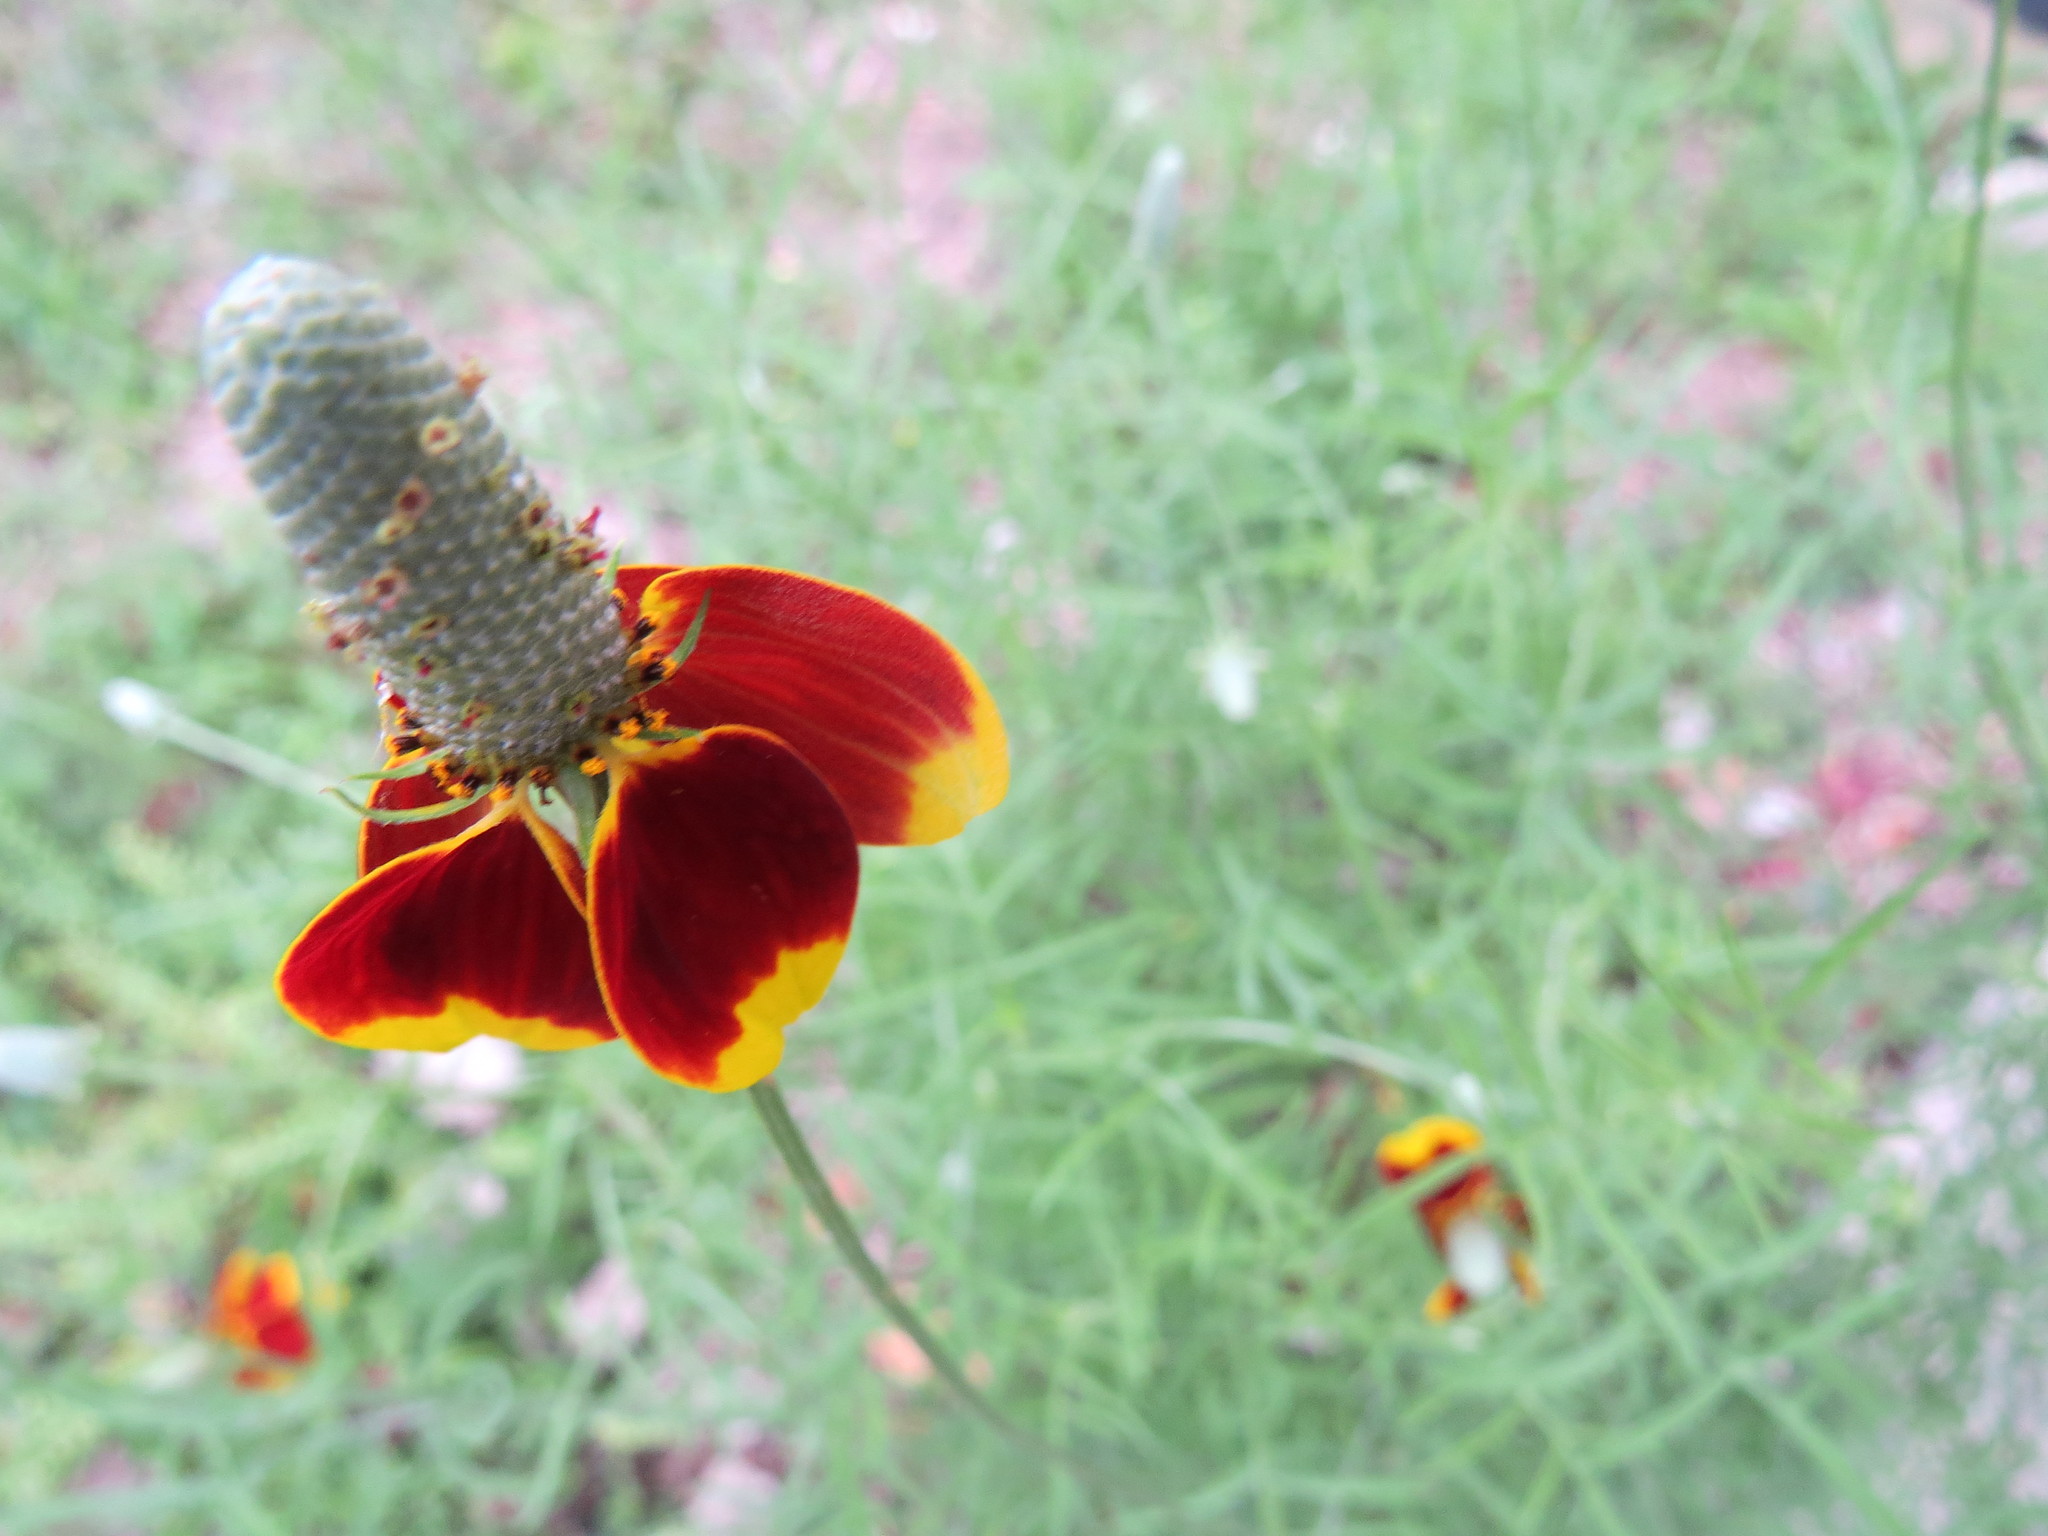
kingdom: Plantae
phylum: Tracheophyta
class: Magnoliopsida
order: Asterales
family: Asteraceae
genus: Ratibida
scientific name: Ratibida columnifera
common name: Prairie coneflower
